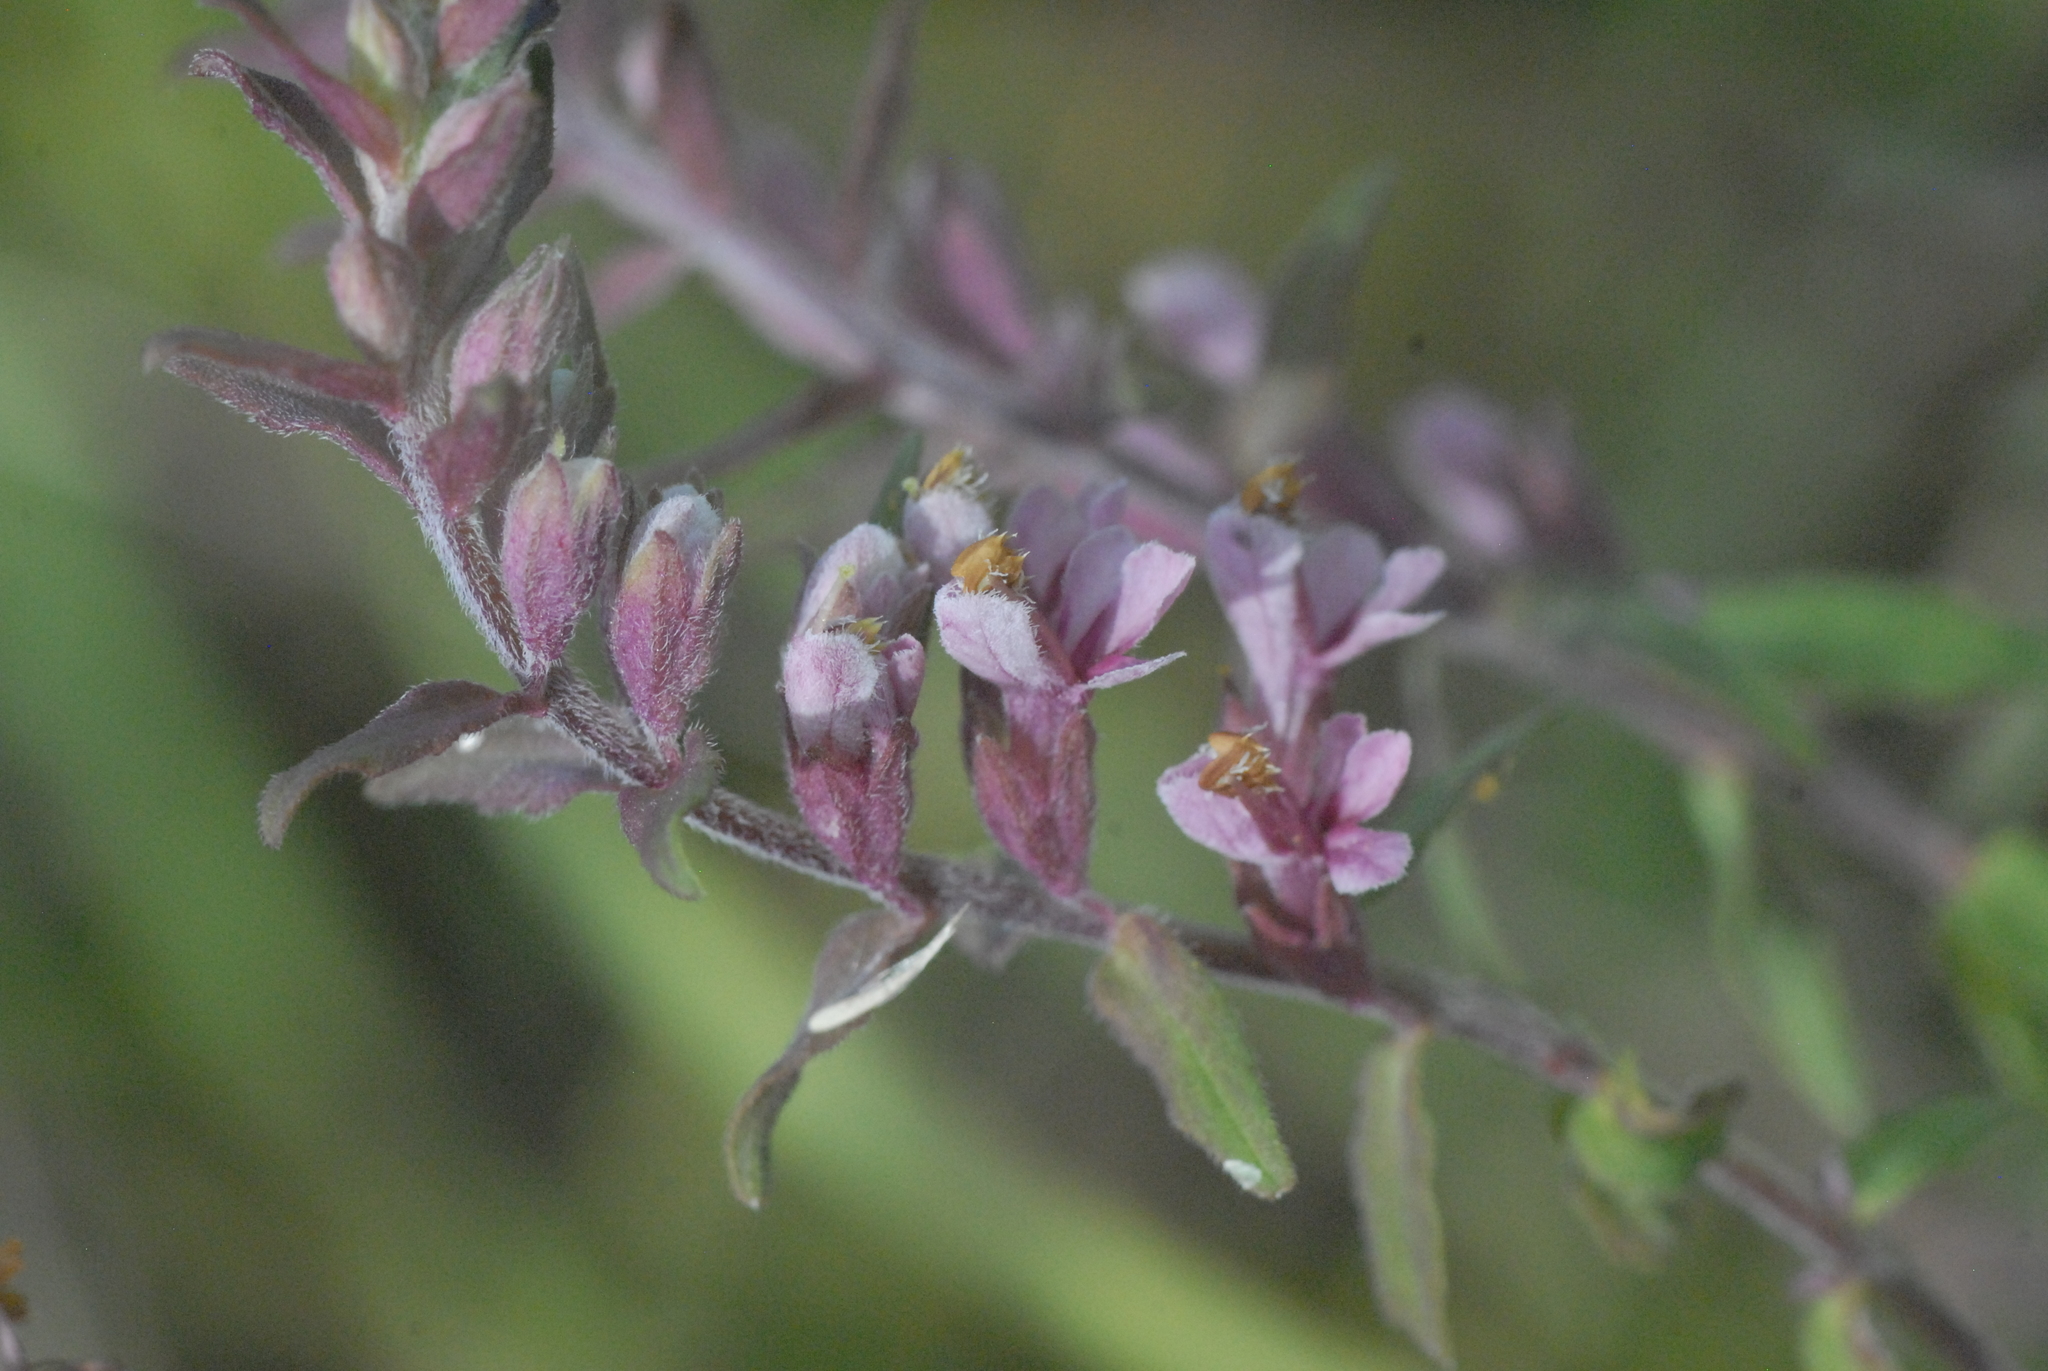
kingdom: Plantae
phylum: Tracheophyta
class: Magnoliopsida
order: Lamiales
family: Orobanchaceae
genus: Odontites
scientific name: Odontites vulgaris
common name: Broomrape
